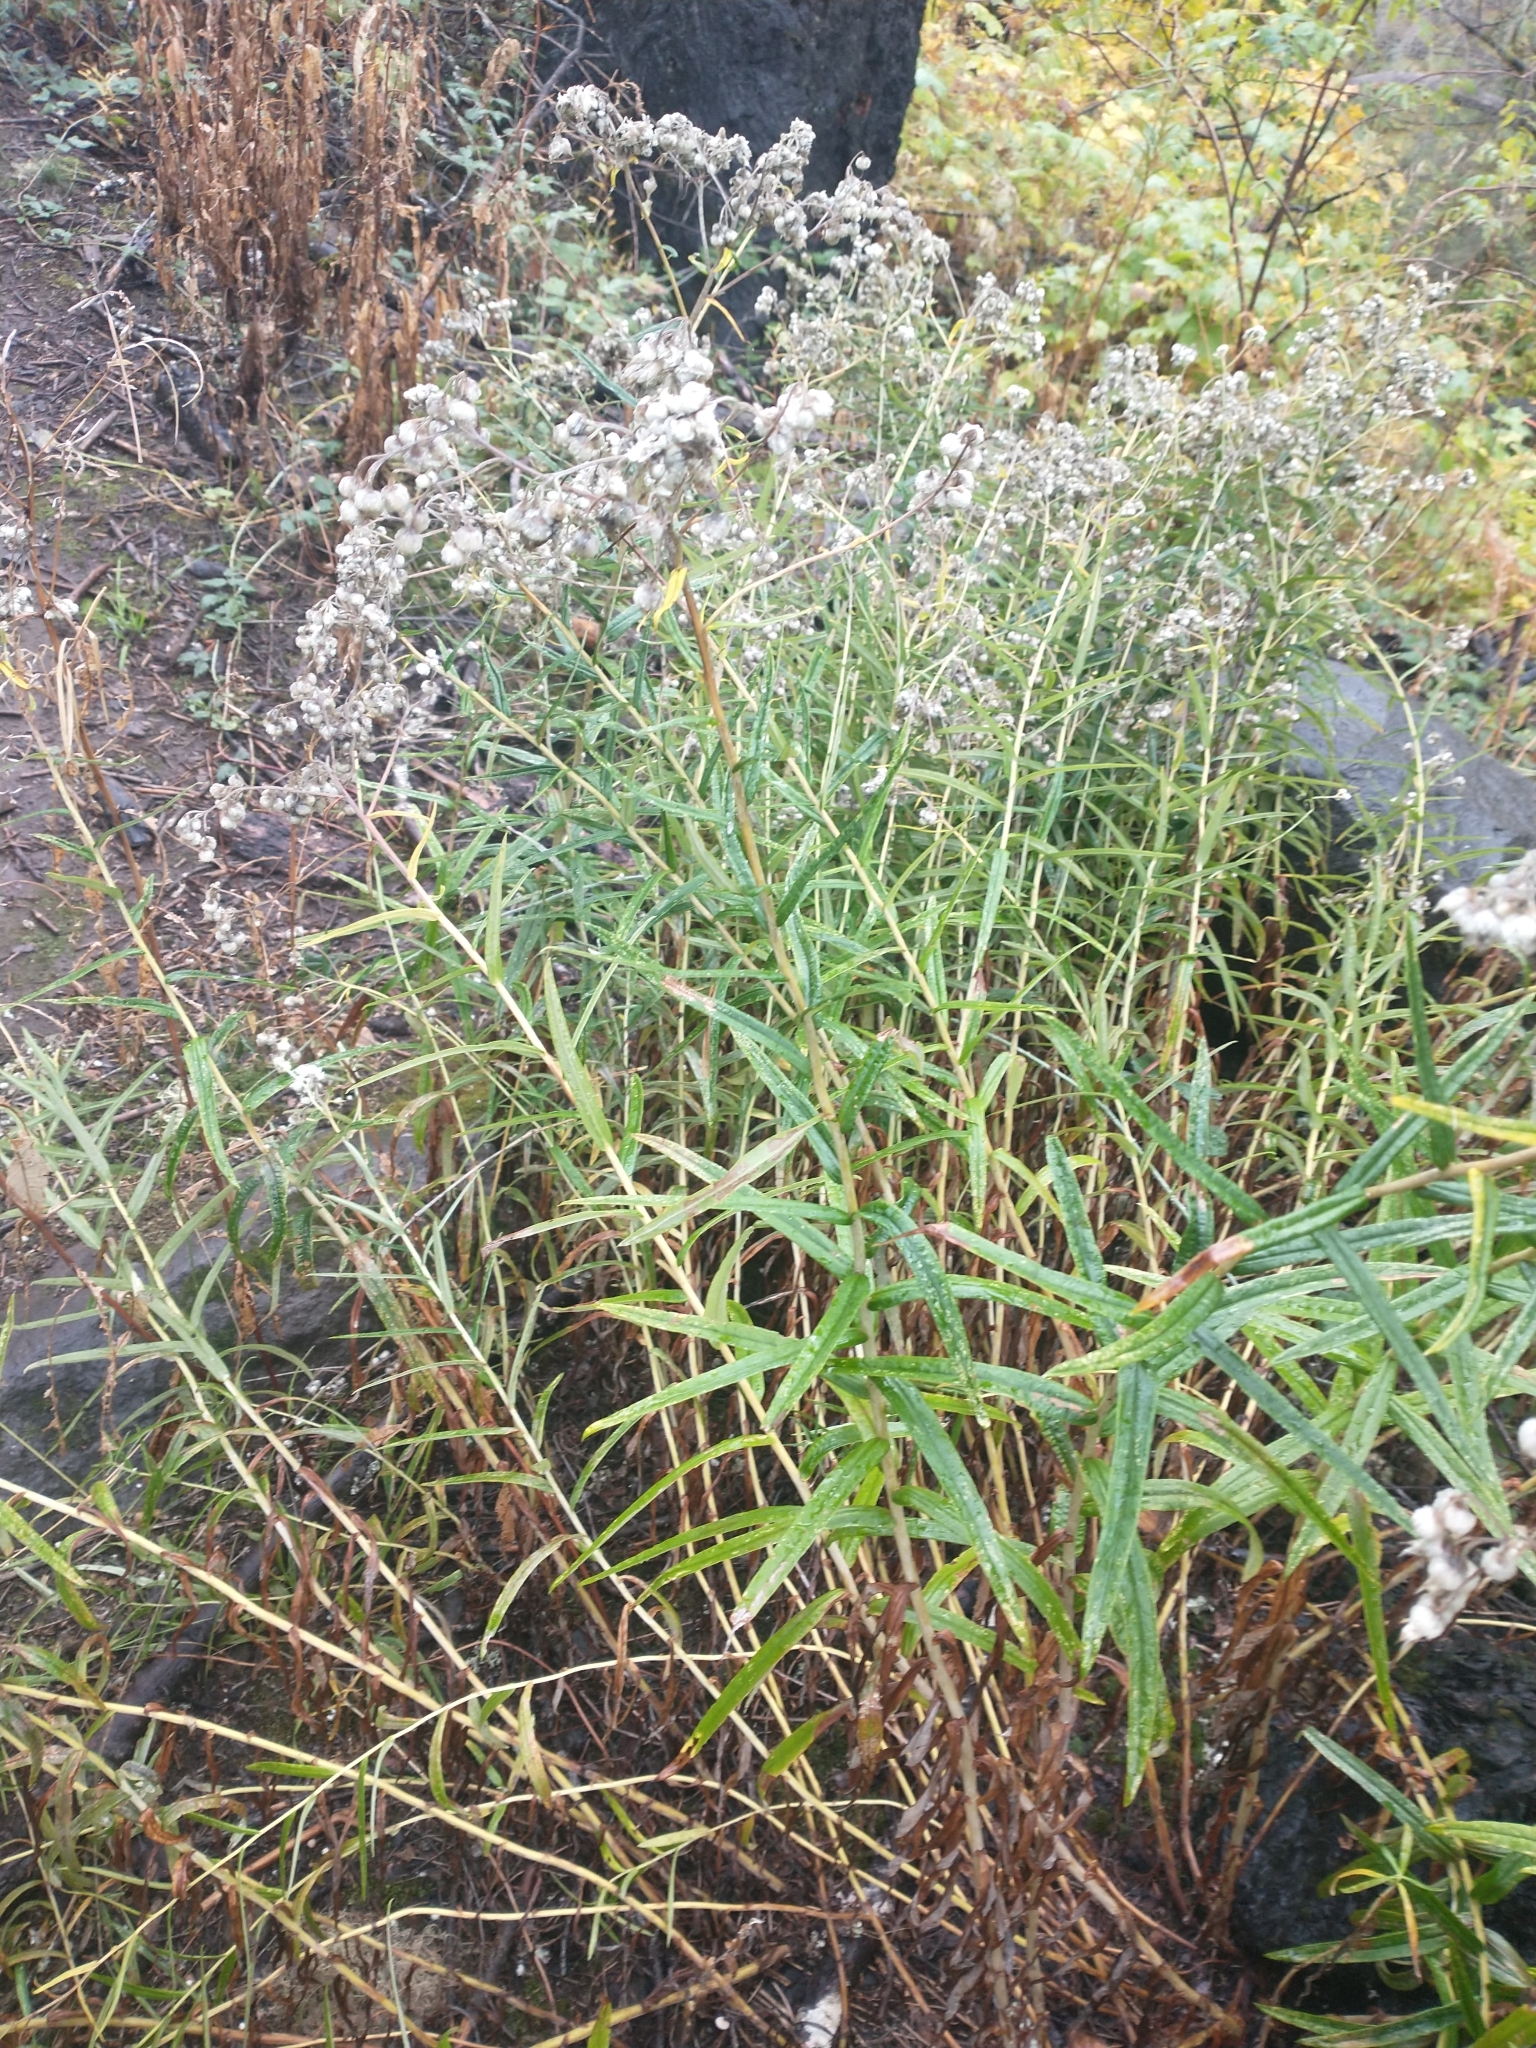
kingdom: Plantae
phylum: Tracheophyta
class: Magnoliopsida
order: Asterales
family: Asteraceae
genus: Anaphalis
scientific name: Anaphalis margaritacea
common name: Pearly everlasting
